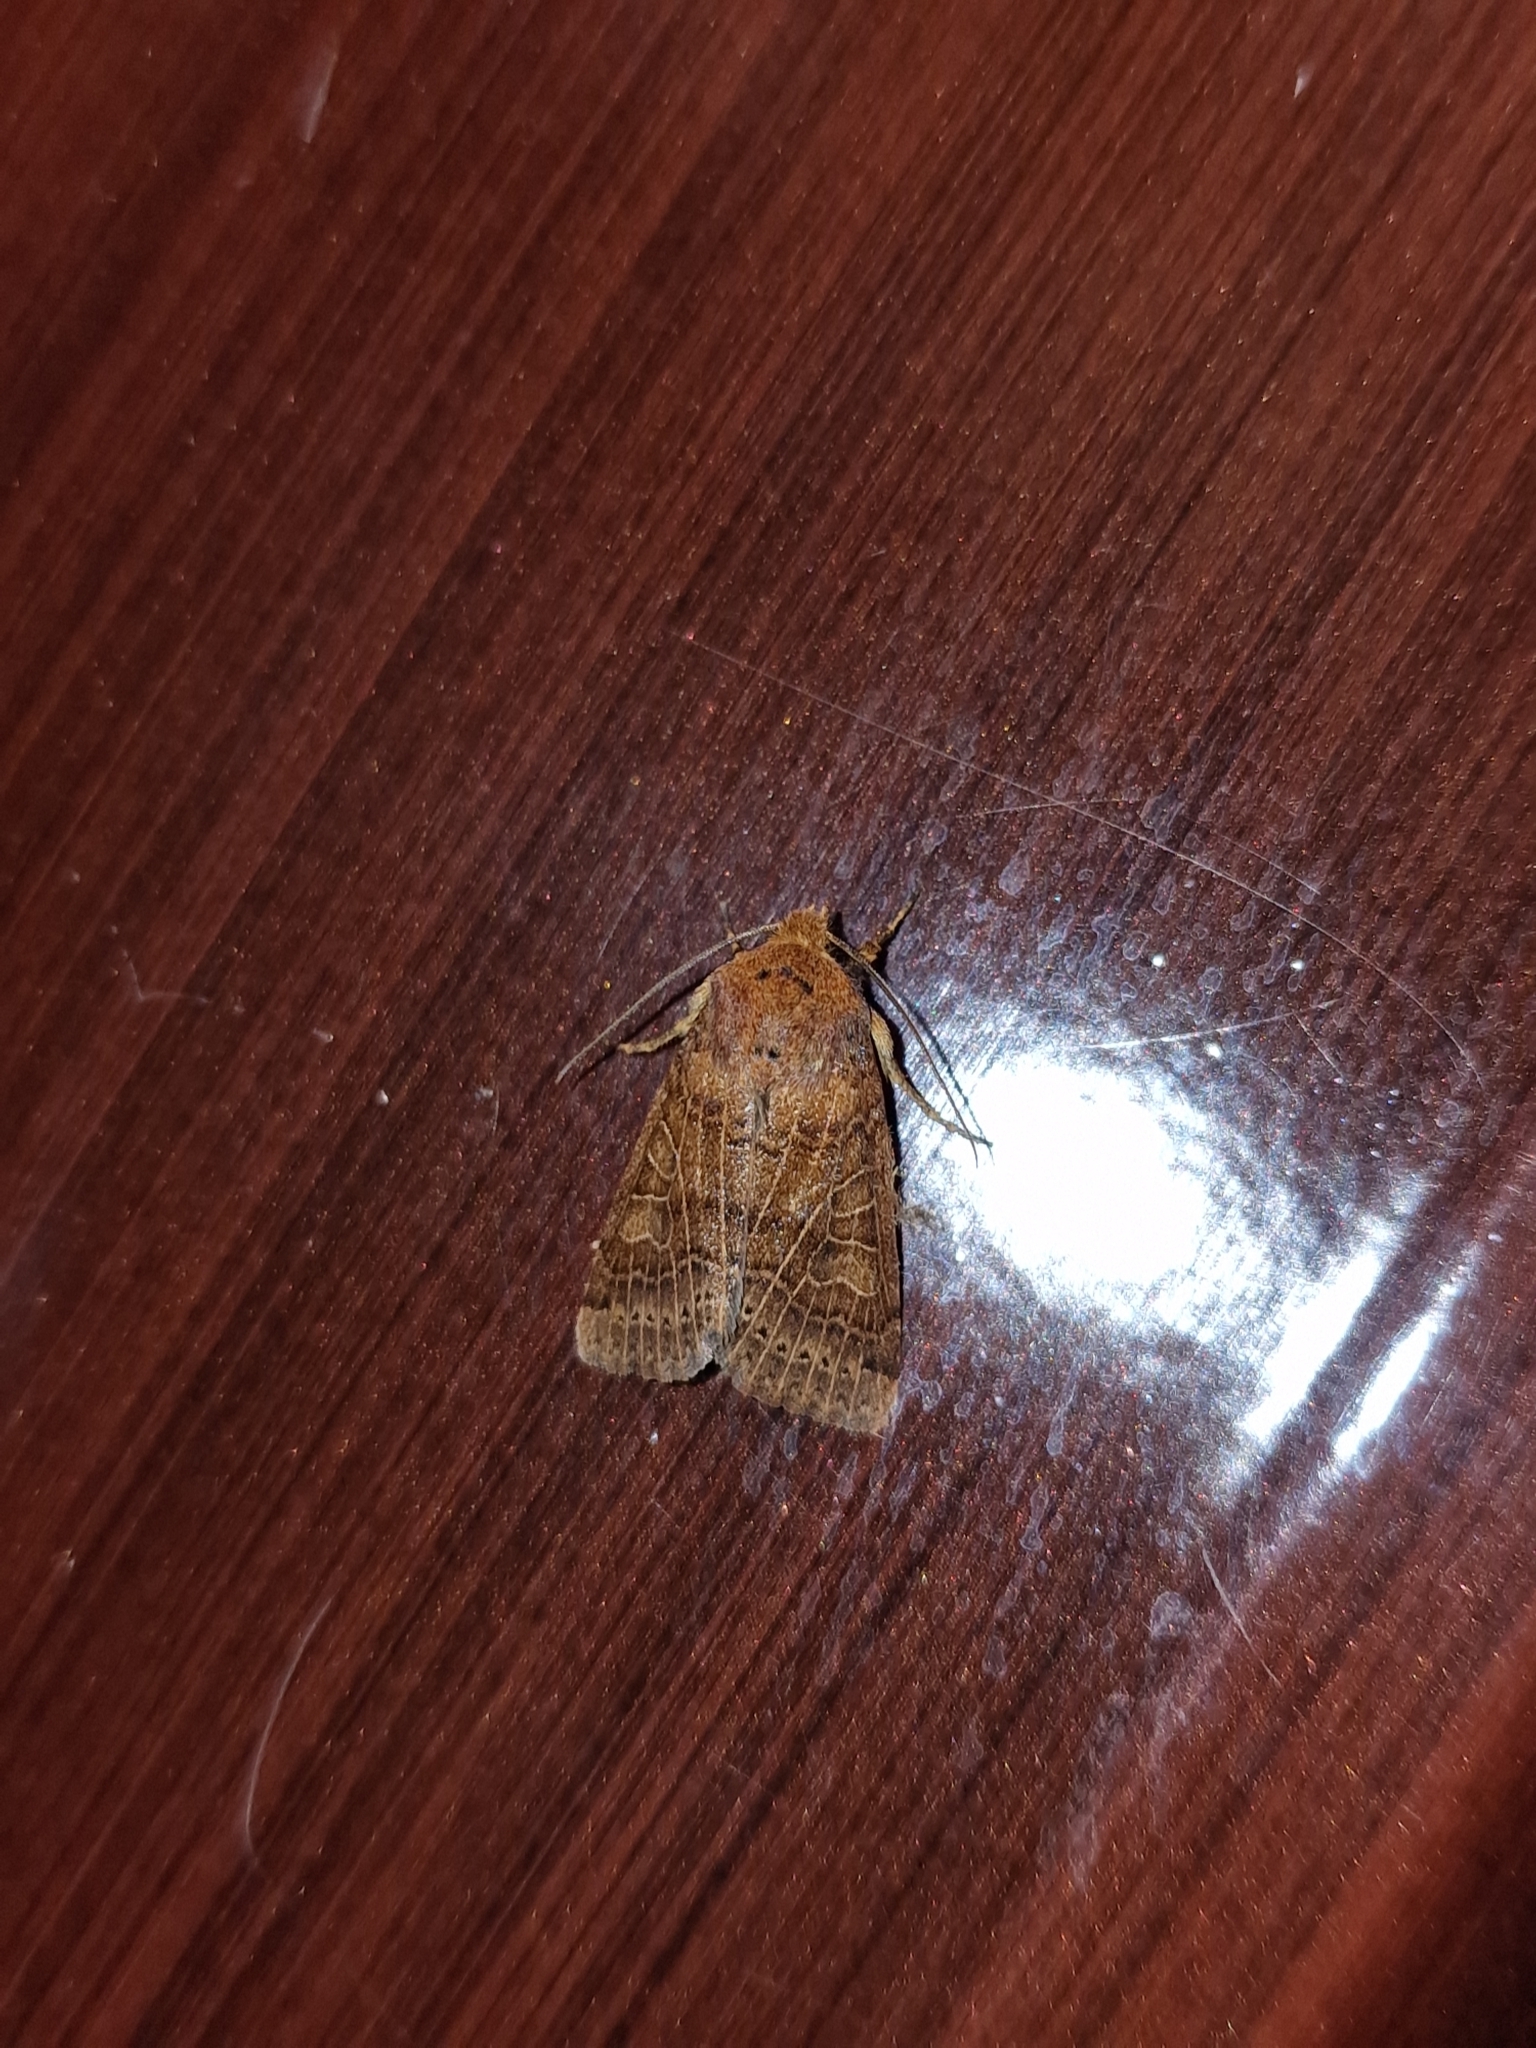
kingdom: Animalia
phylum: Arthropoda
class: Insecta
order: Lepidoptera
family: Noctuidae
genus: Agrochola
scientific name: Agrochola nitida
